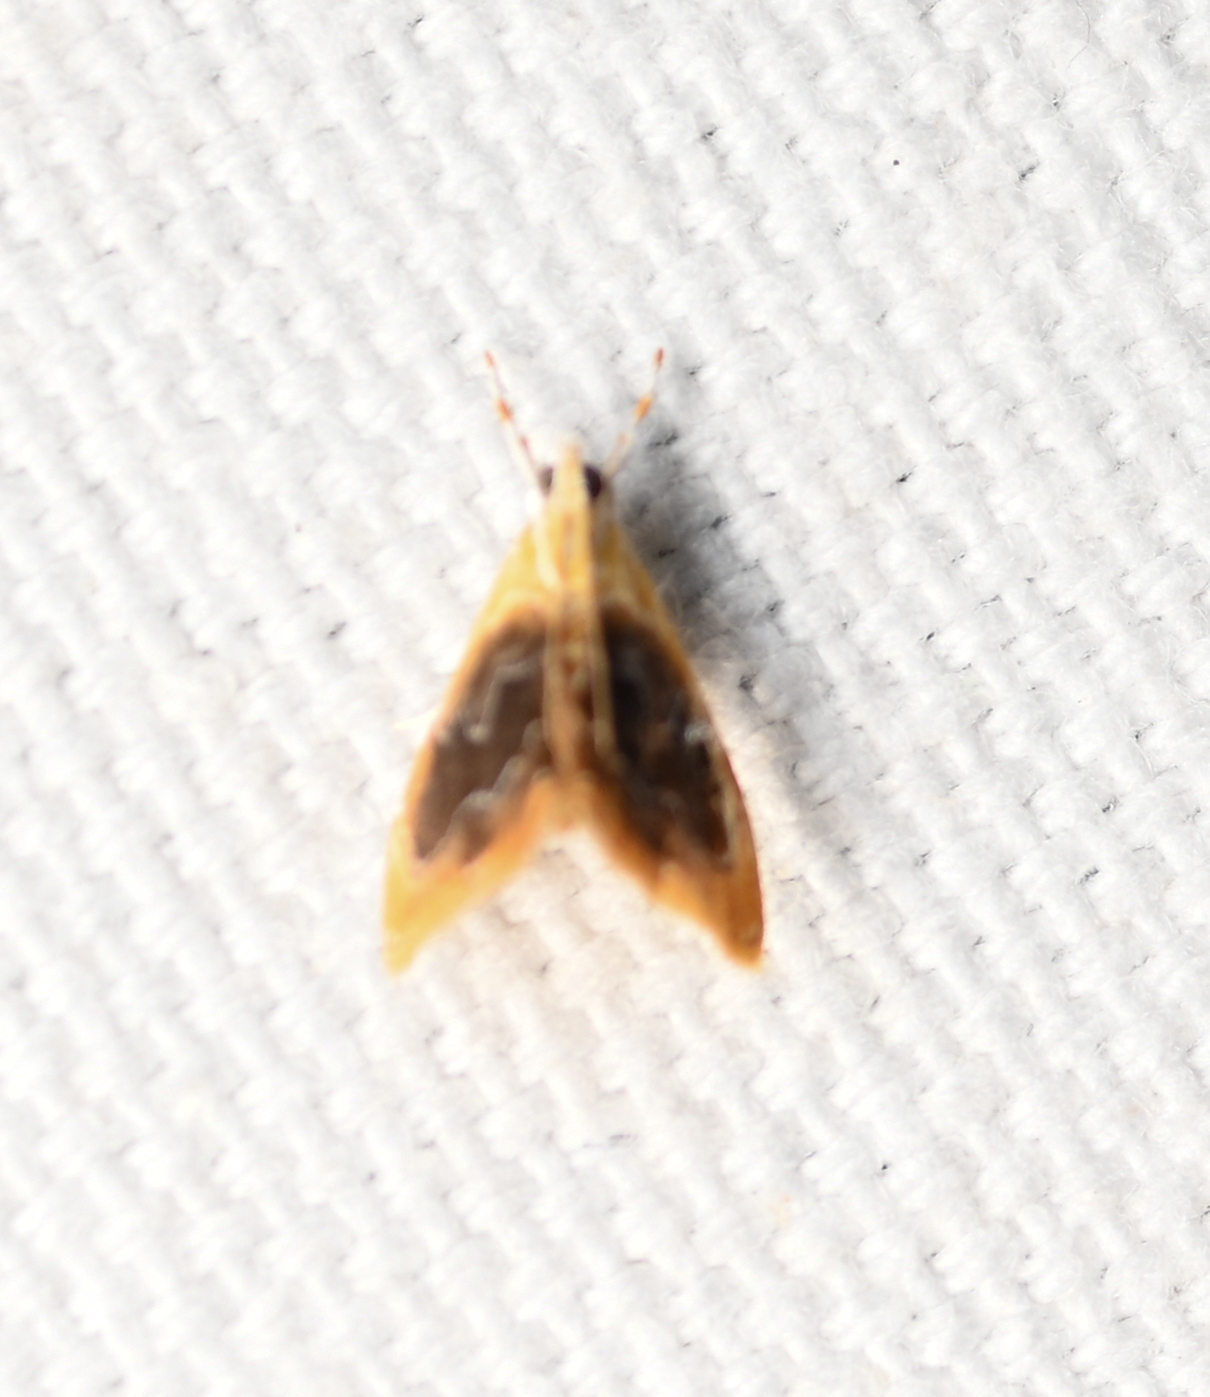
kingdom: Animalia
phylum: Arthropoda
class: Insecta
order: Lepidoptera
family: Crambidae
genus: Glaphyria
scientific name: Glaphyria fulminalis
